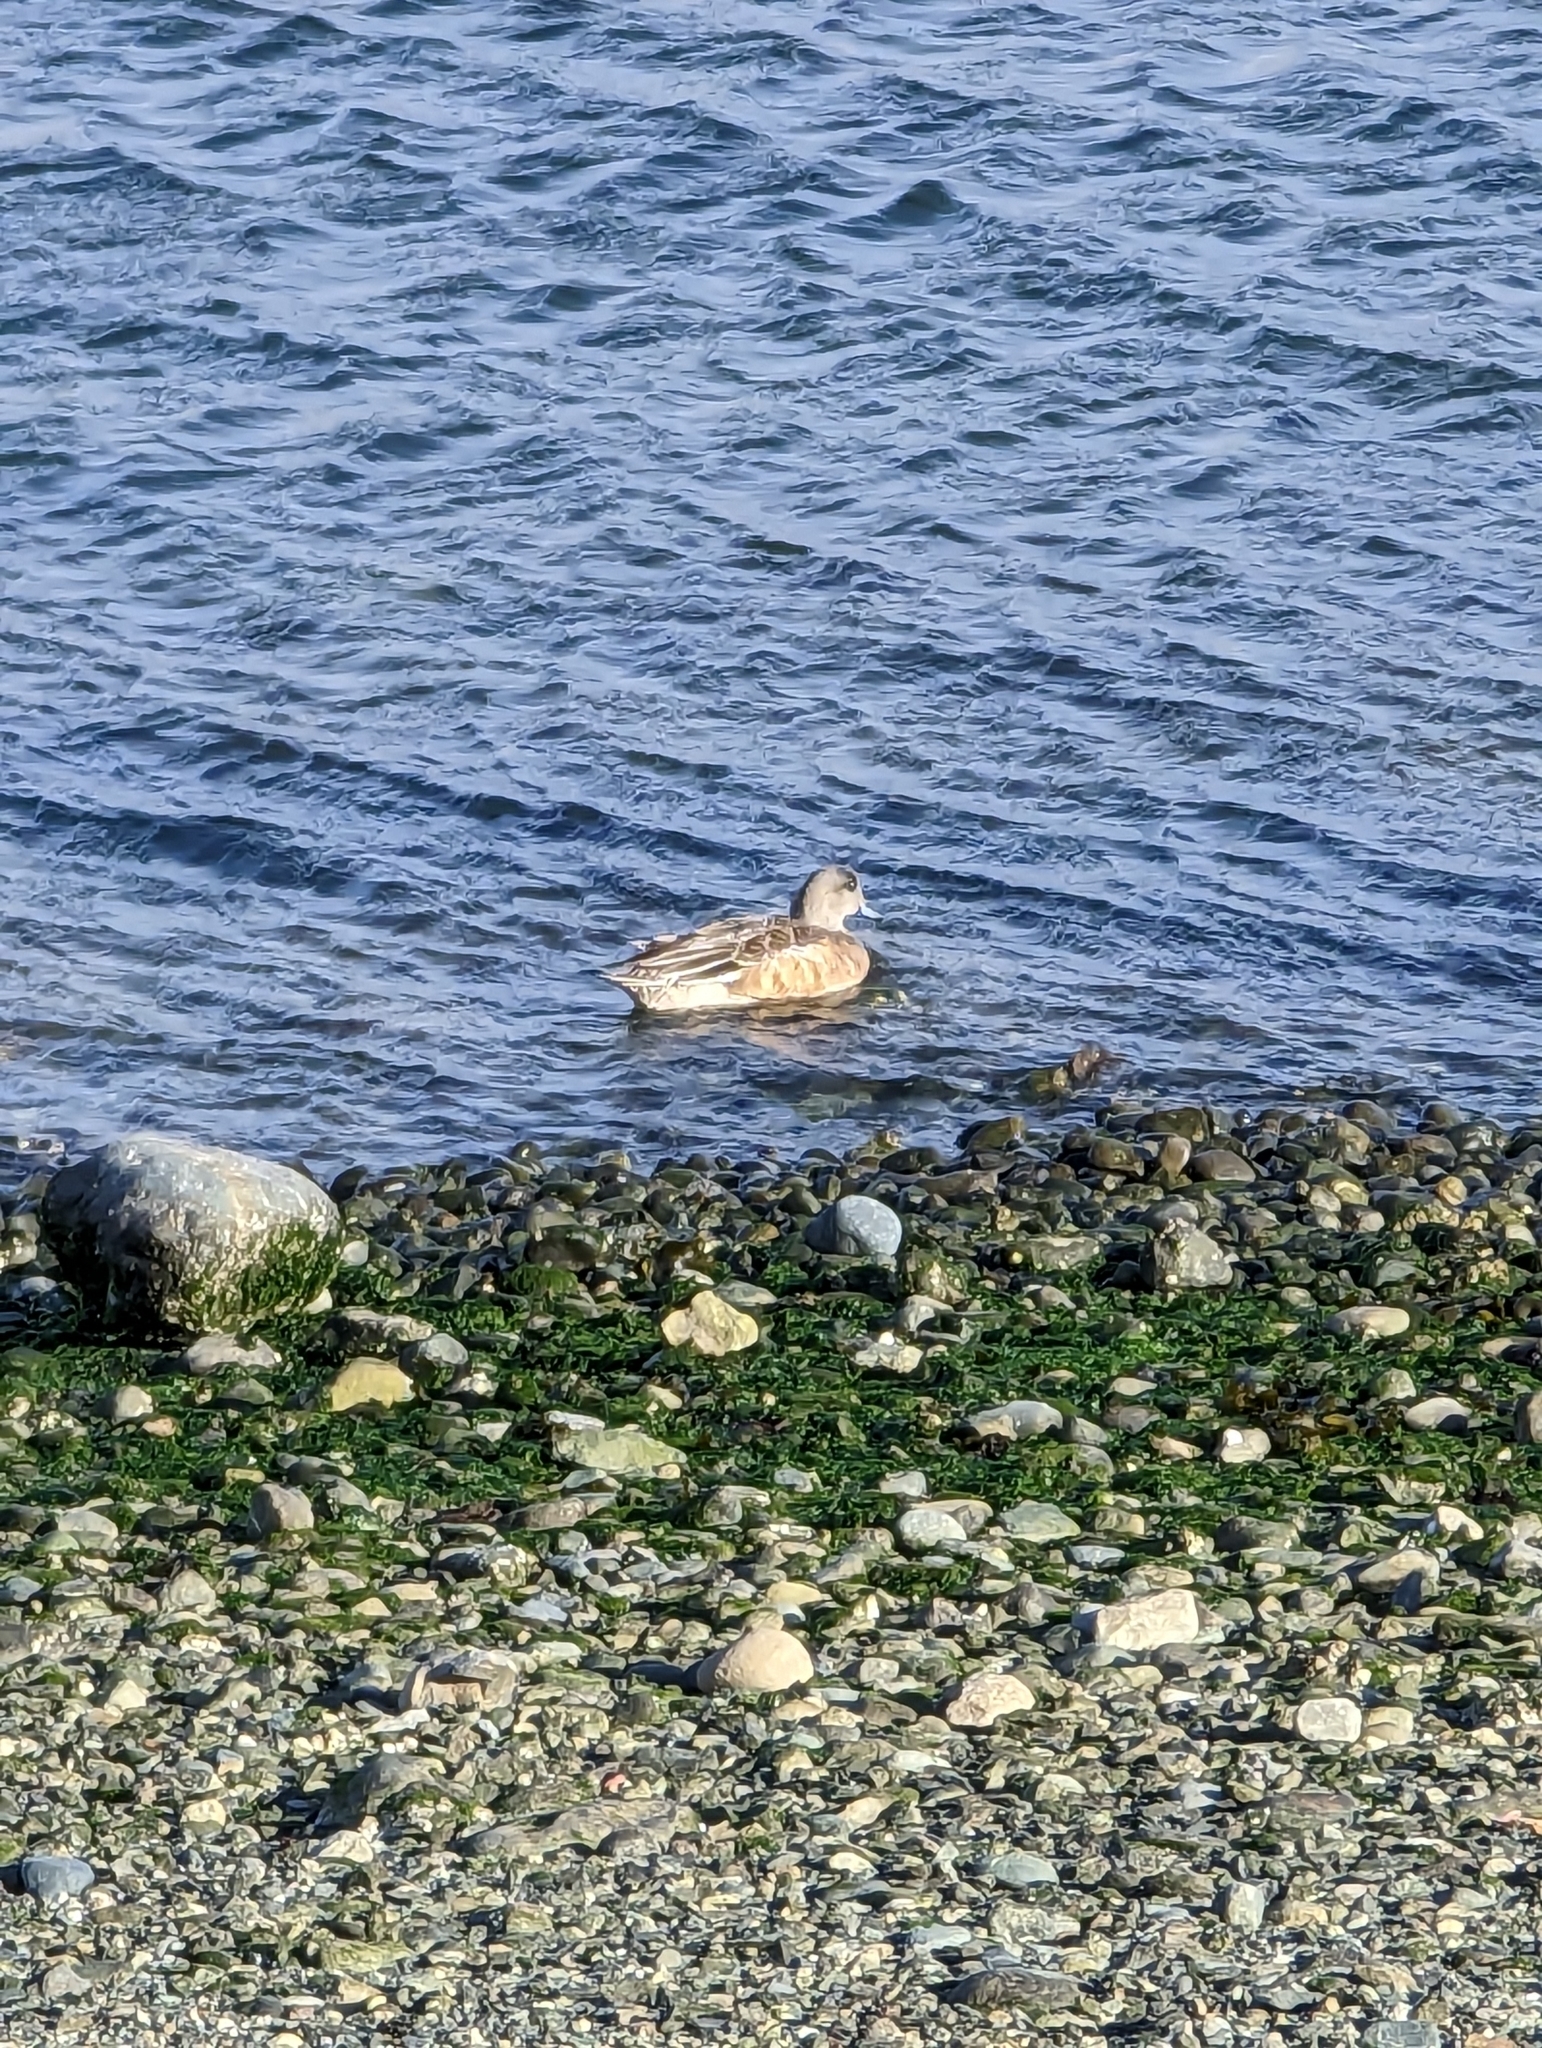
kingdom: Animalia
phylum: Chordata
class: Aves
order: Anseriformes
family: Anatidae
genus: Mareca
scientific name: Mareca americana
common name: American wigeon
